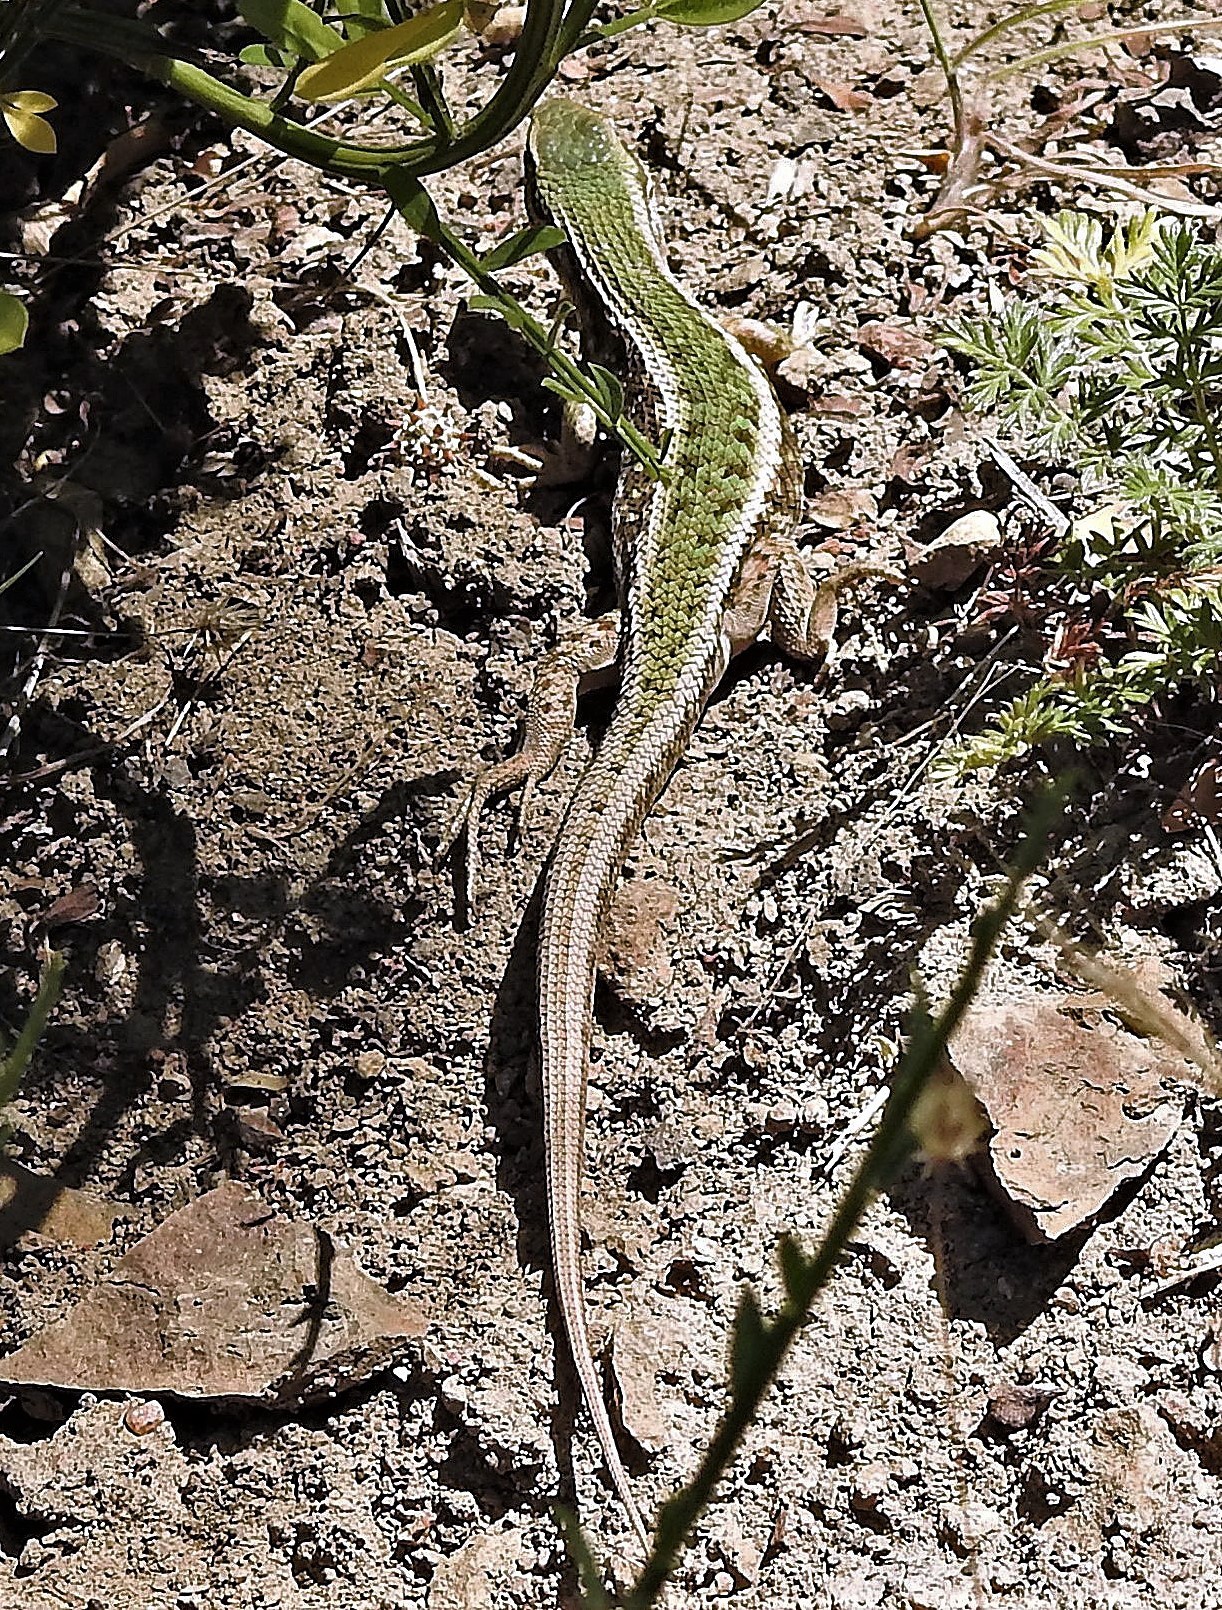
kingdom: Animalia
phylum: Chordata
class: Squamata
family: Liolaemidae
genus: Liolaemus
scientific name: Liolaemus chiliensis
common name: Chilean tree iguana
